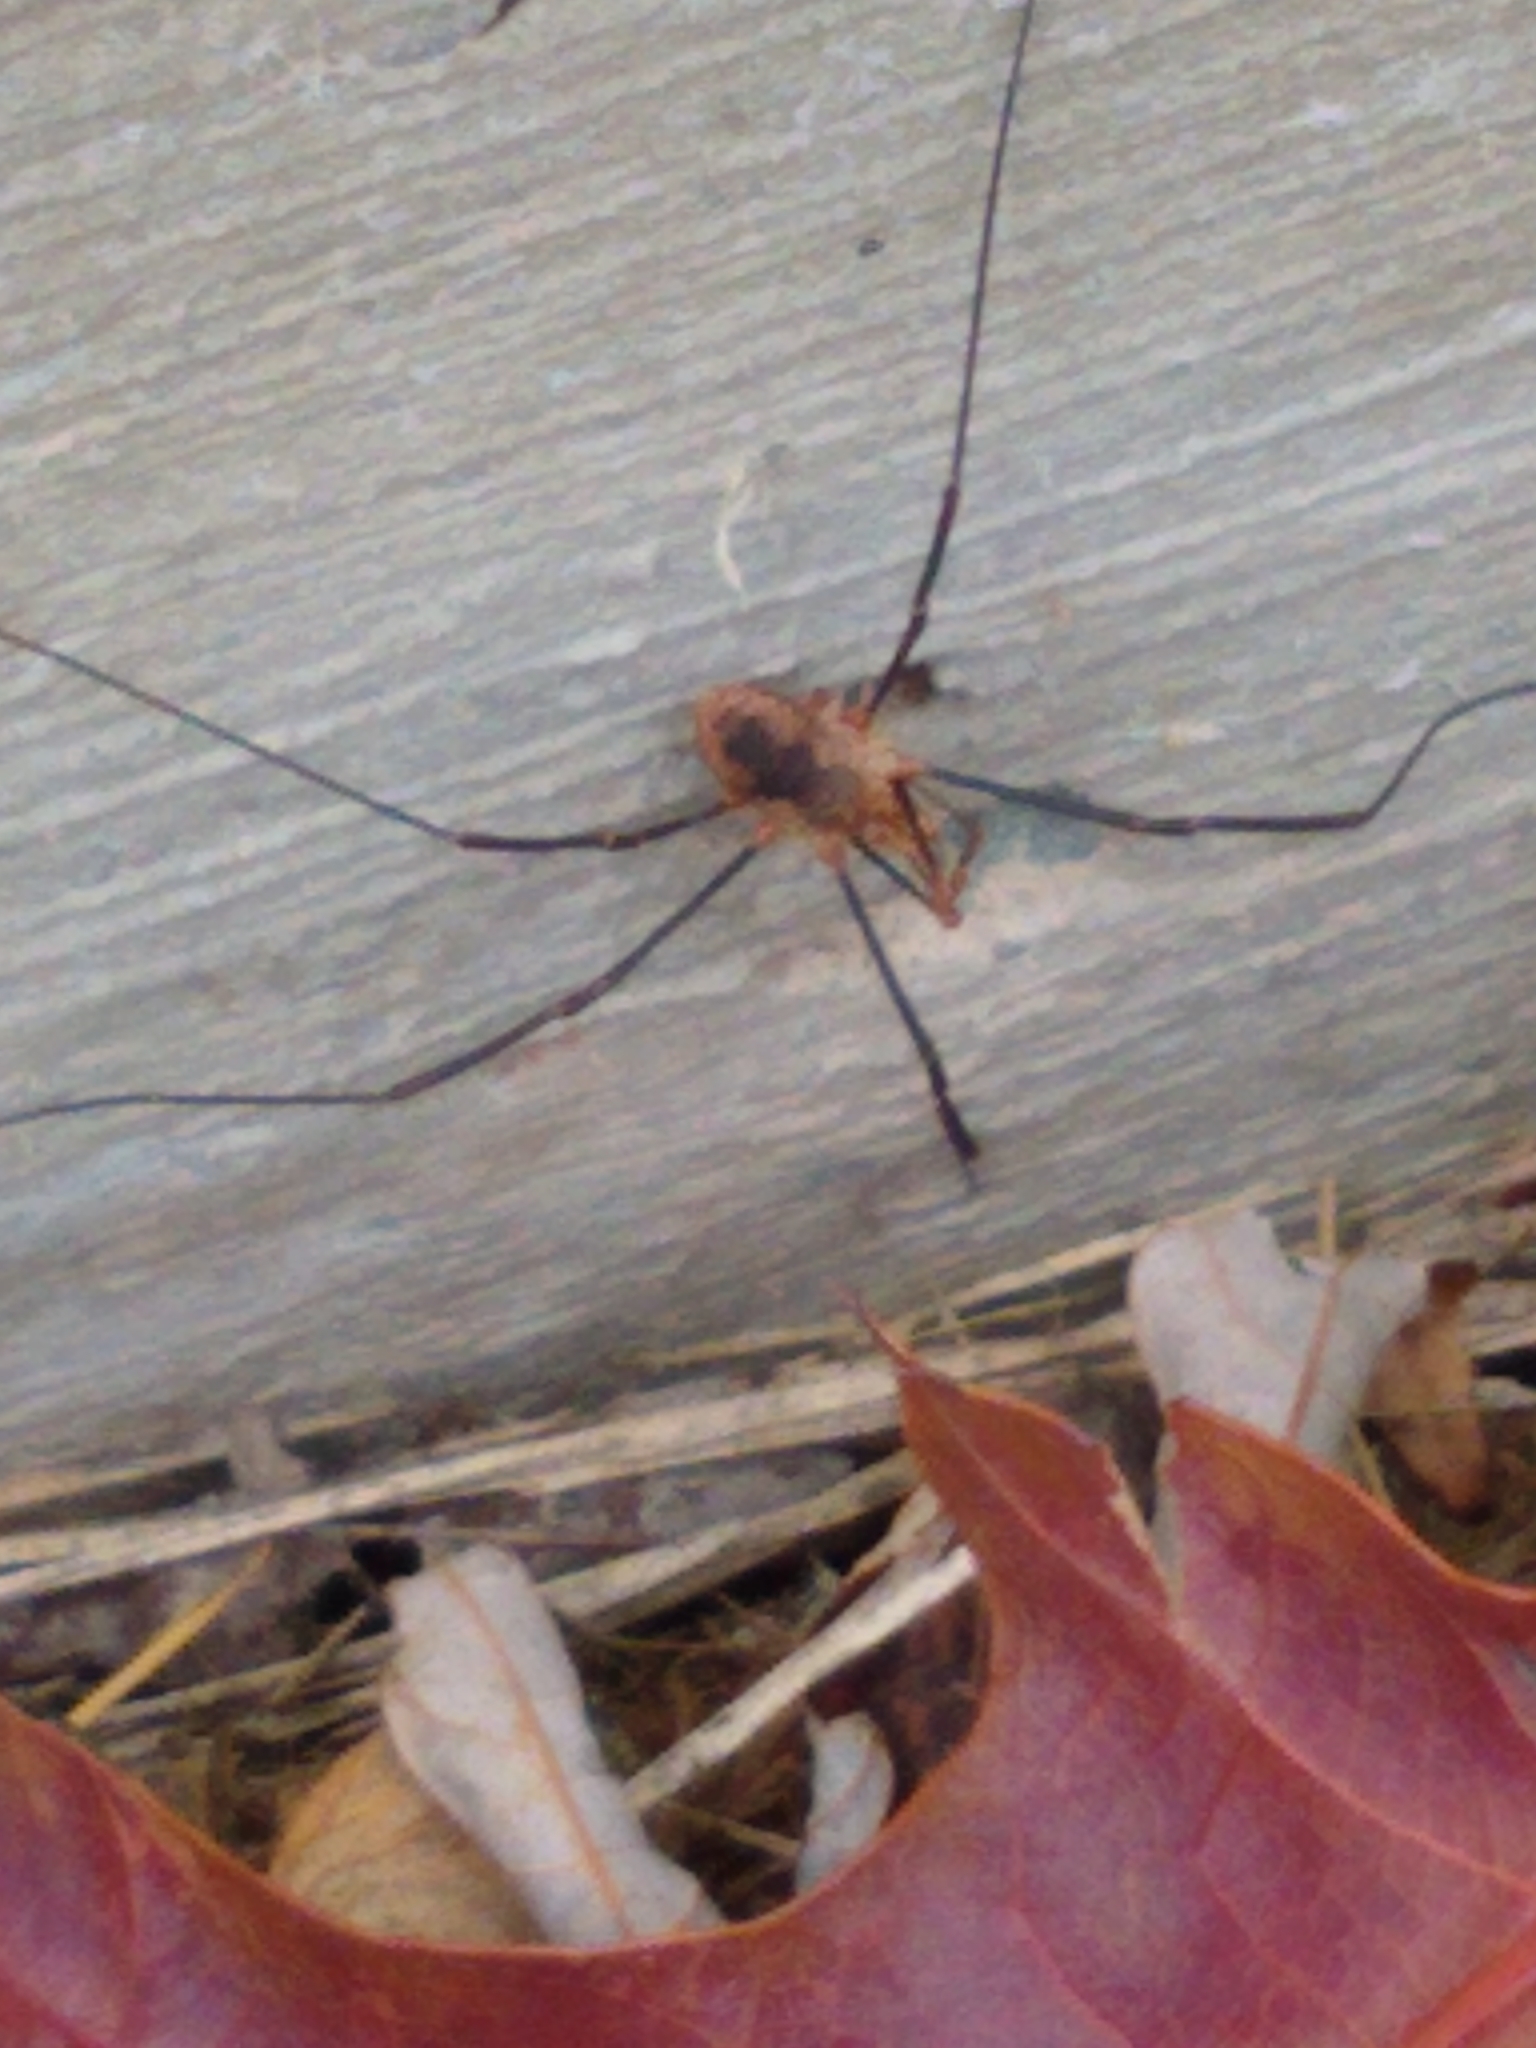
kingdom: Animalia
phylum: Arthropoda
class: Arachnida
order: Opiliones
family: Phalangiidae
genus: Phalangium
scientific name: Phalangium opilio
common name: Daddy longleg
